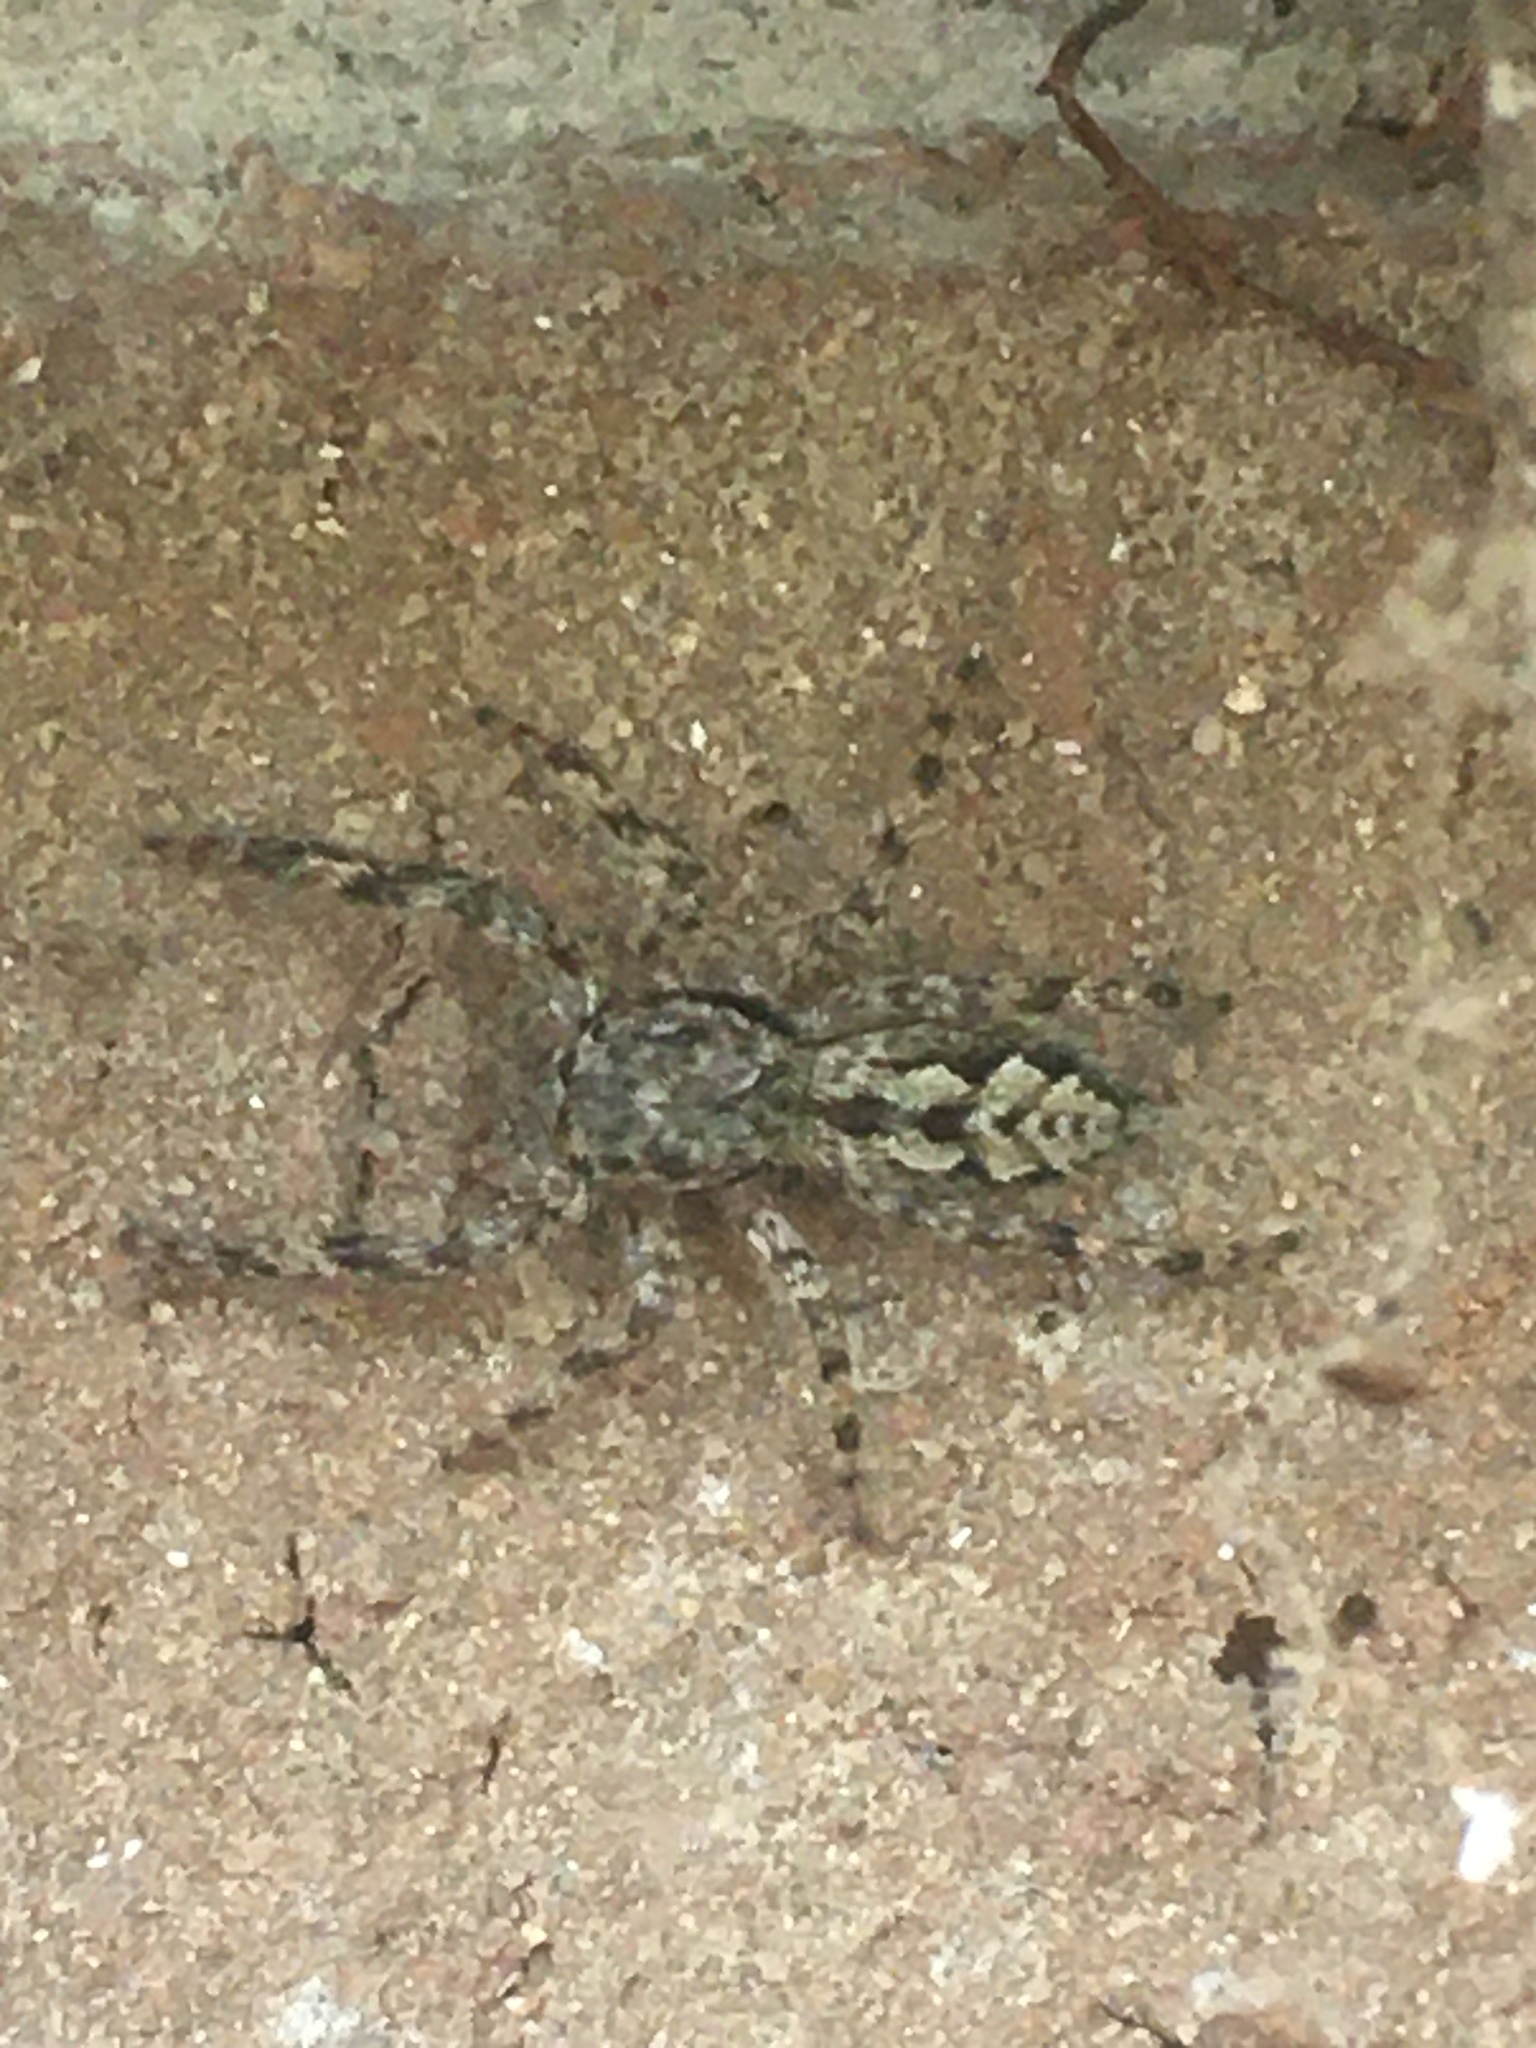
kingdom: Animalia
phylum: Arthropoda
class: Arachnida
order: Araneae
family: Salticidae
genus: Platycryptus
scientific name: Platycryptus undatus
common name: Tan jumping spider
